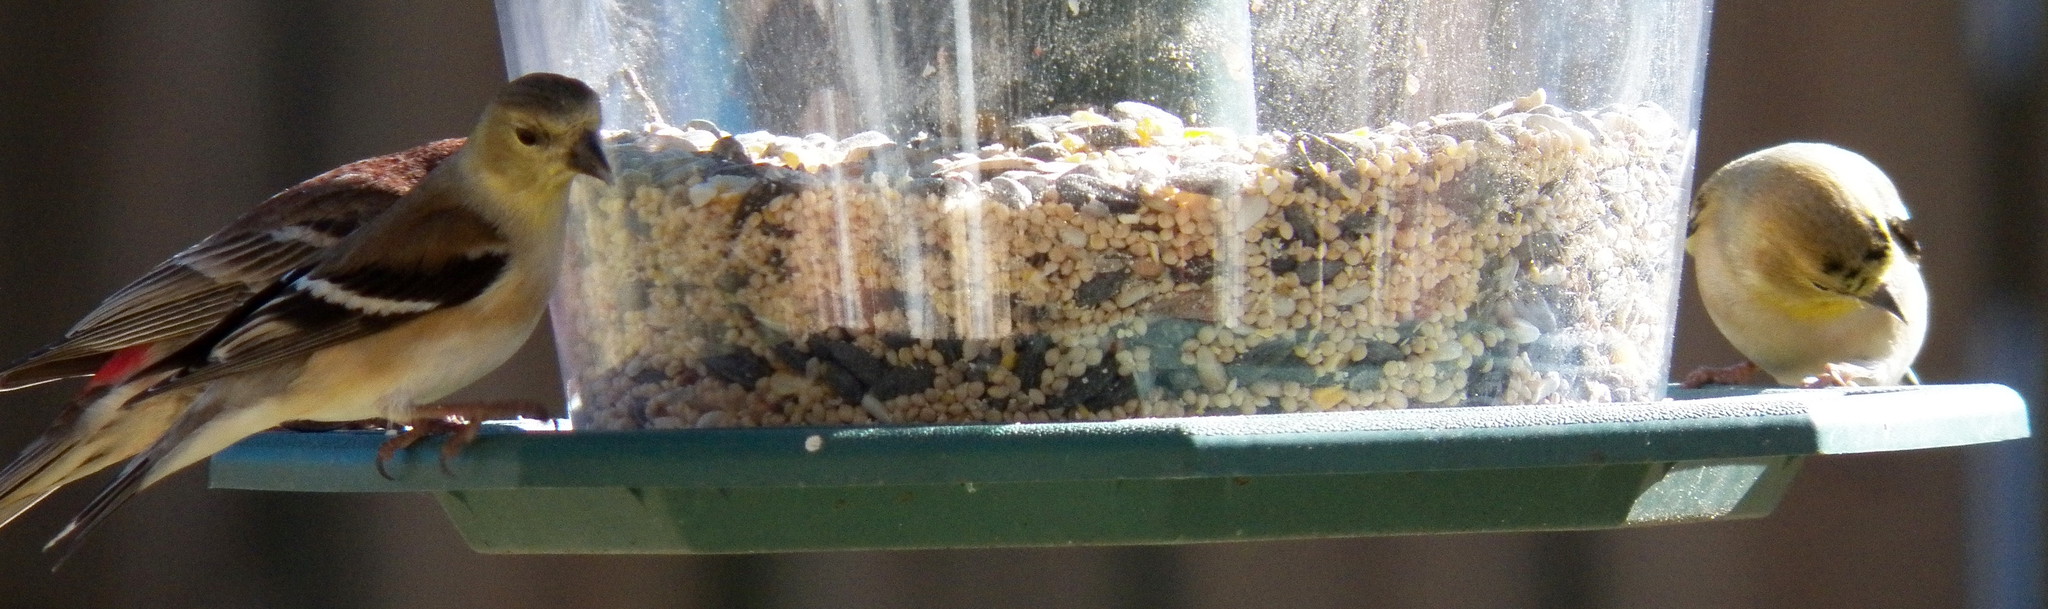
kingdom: Animalia
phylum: Chordata
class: Aves
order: Passeriformes
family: Fringillidae
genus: Spinus
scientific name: Spinus tristis
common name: American goldfinch
